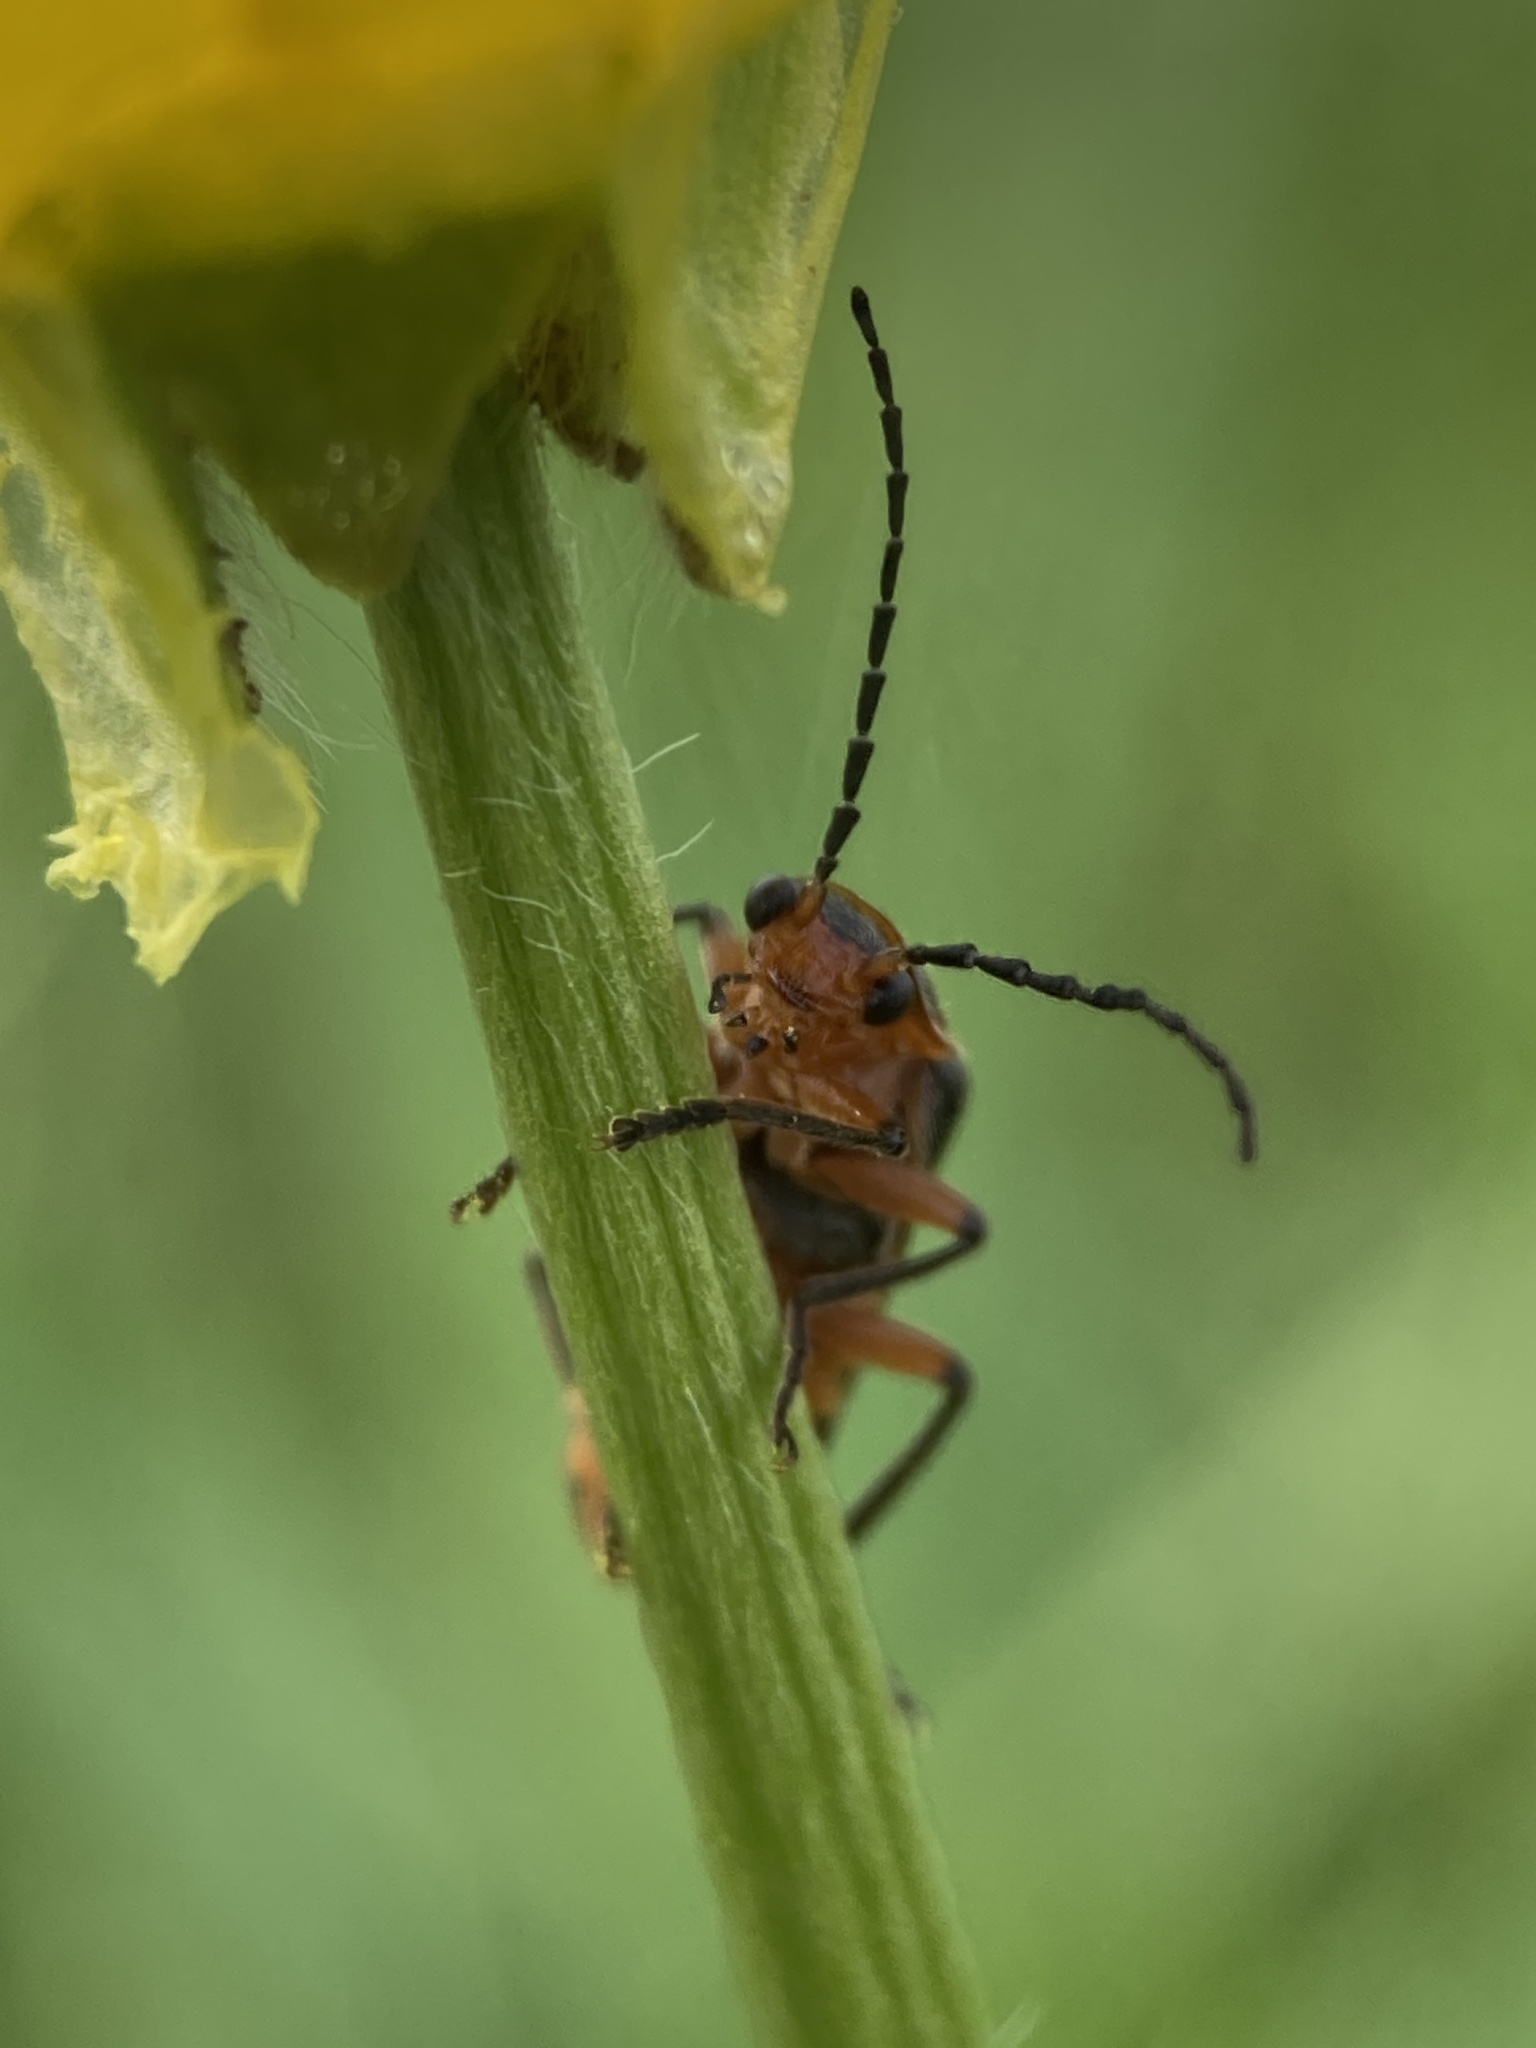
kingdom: Animalia
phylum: Arthropoda
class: Insecta
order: Coleoptera
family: Cantharidae
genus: Atalantycha
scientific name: Atalantycha bilineata
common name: Two-lined leatherwing
